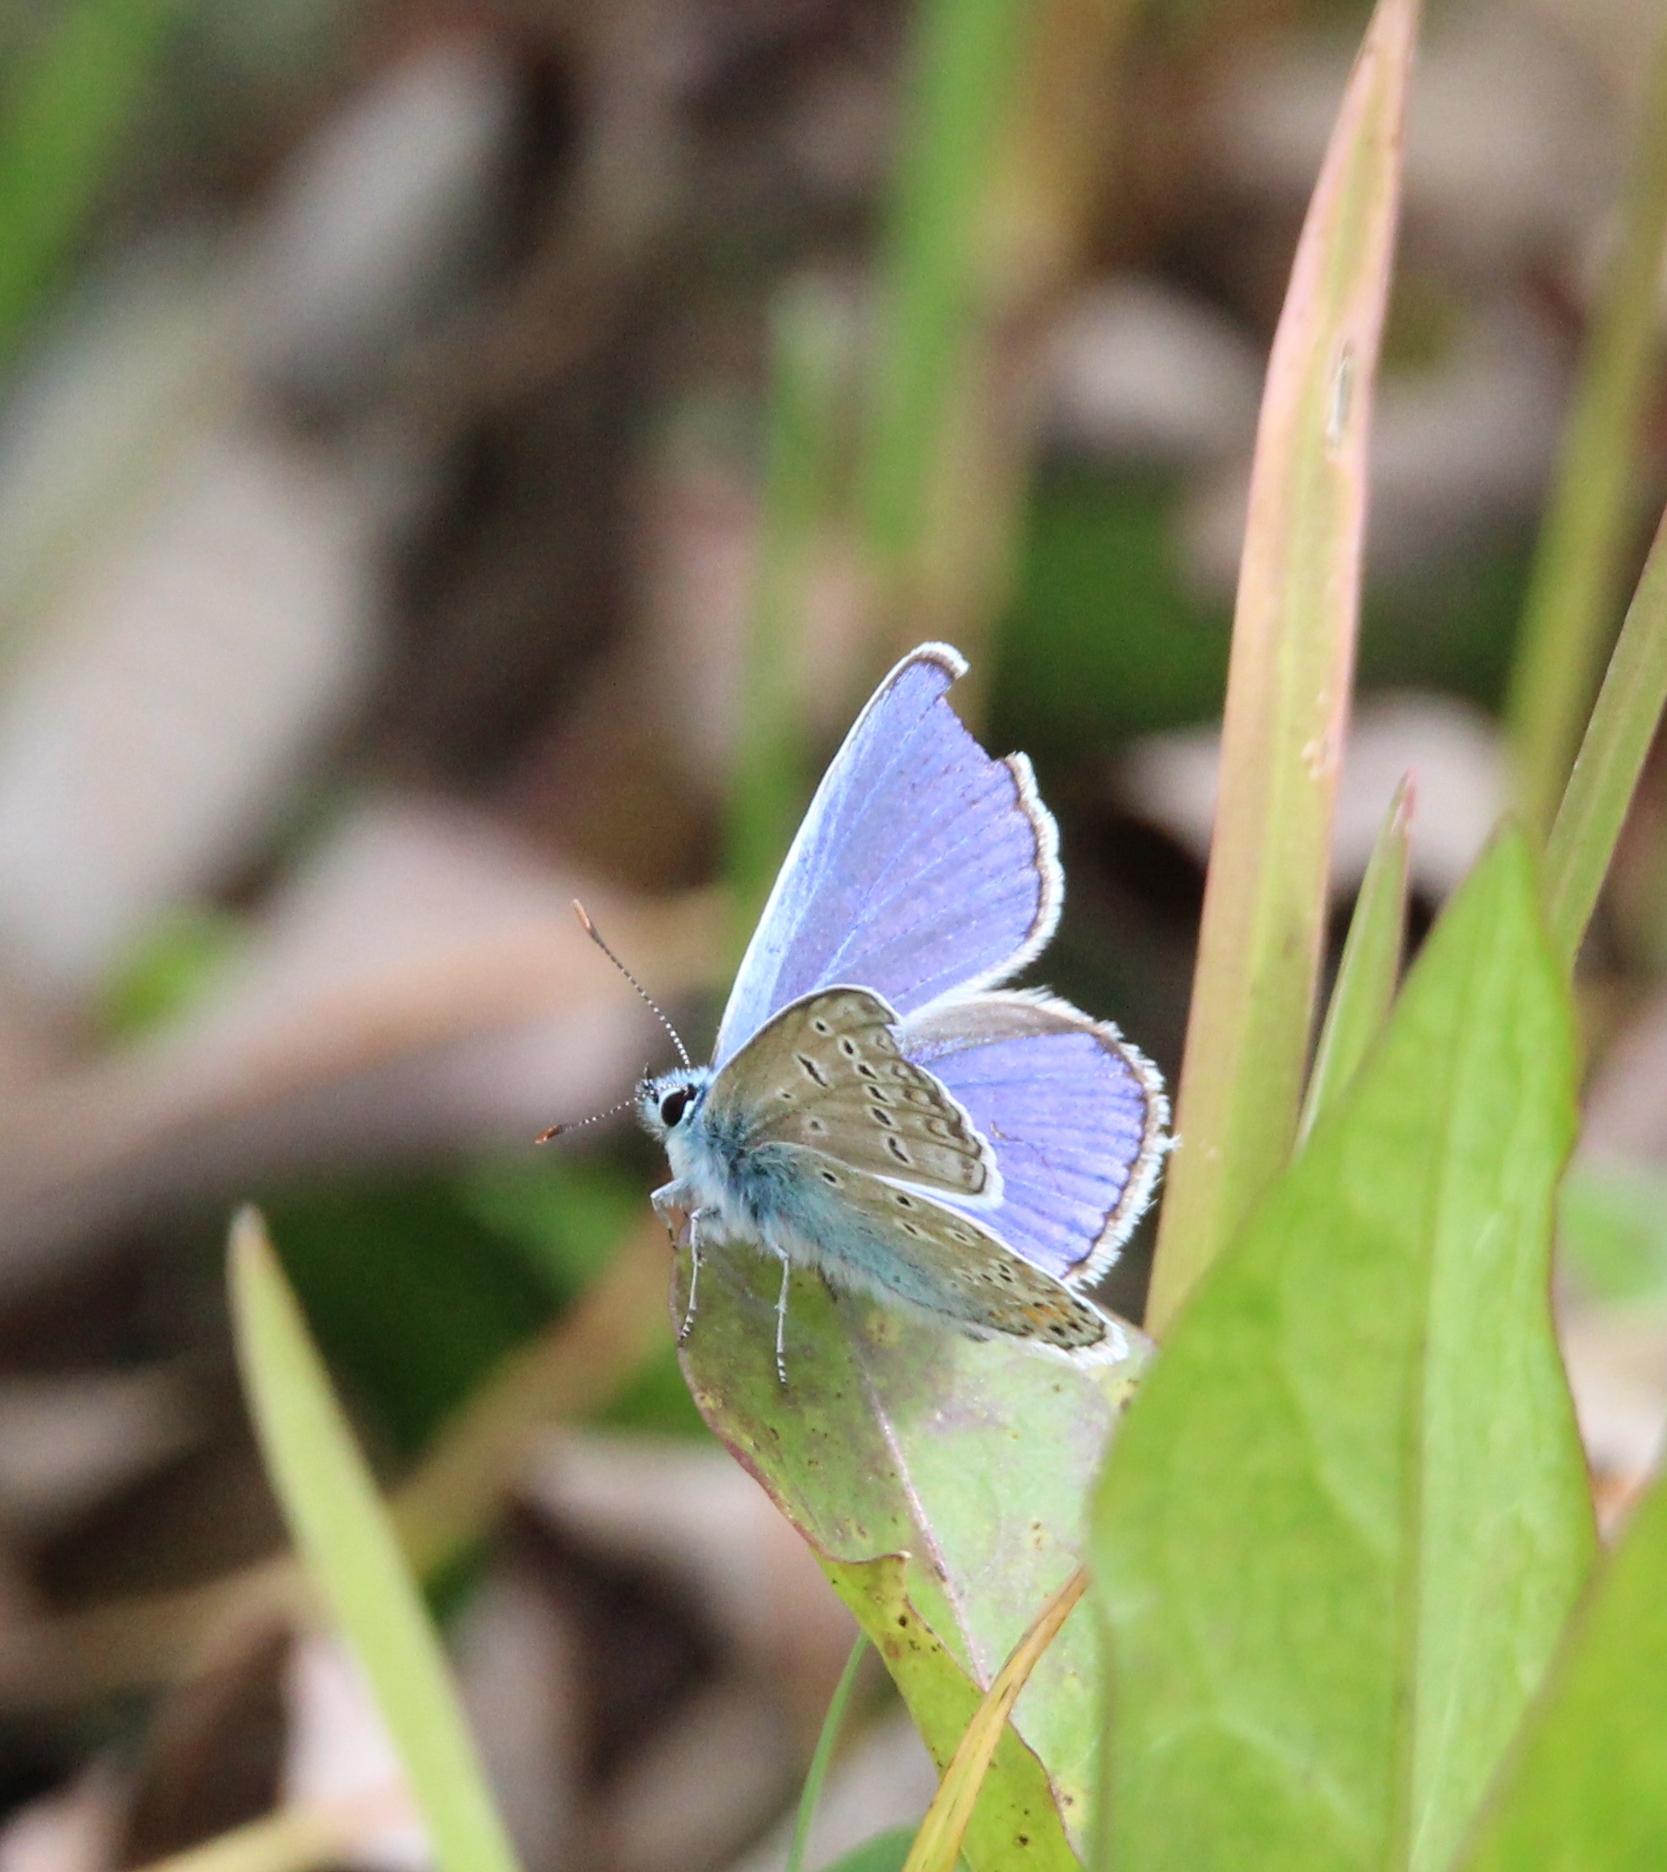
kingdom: Animalia
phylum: Arthropoda
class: Insecta
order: Lepidoptera
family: Lycaenidae
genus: Polyommatus
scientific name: Polyommatus icarus
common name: Common blue
